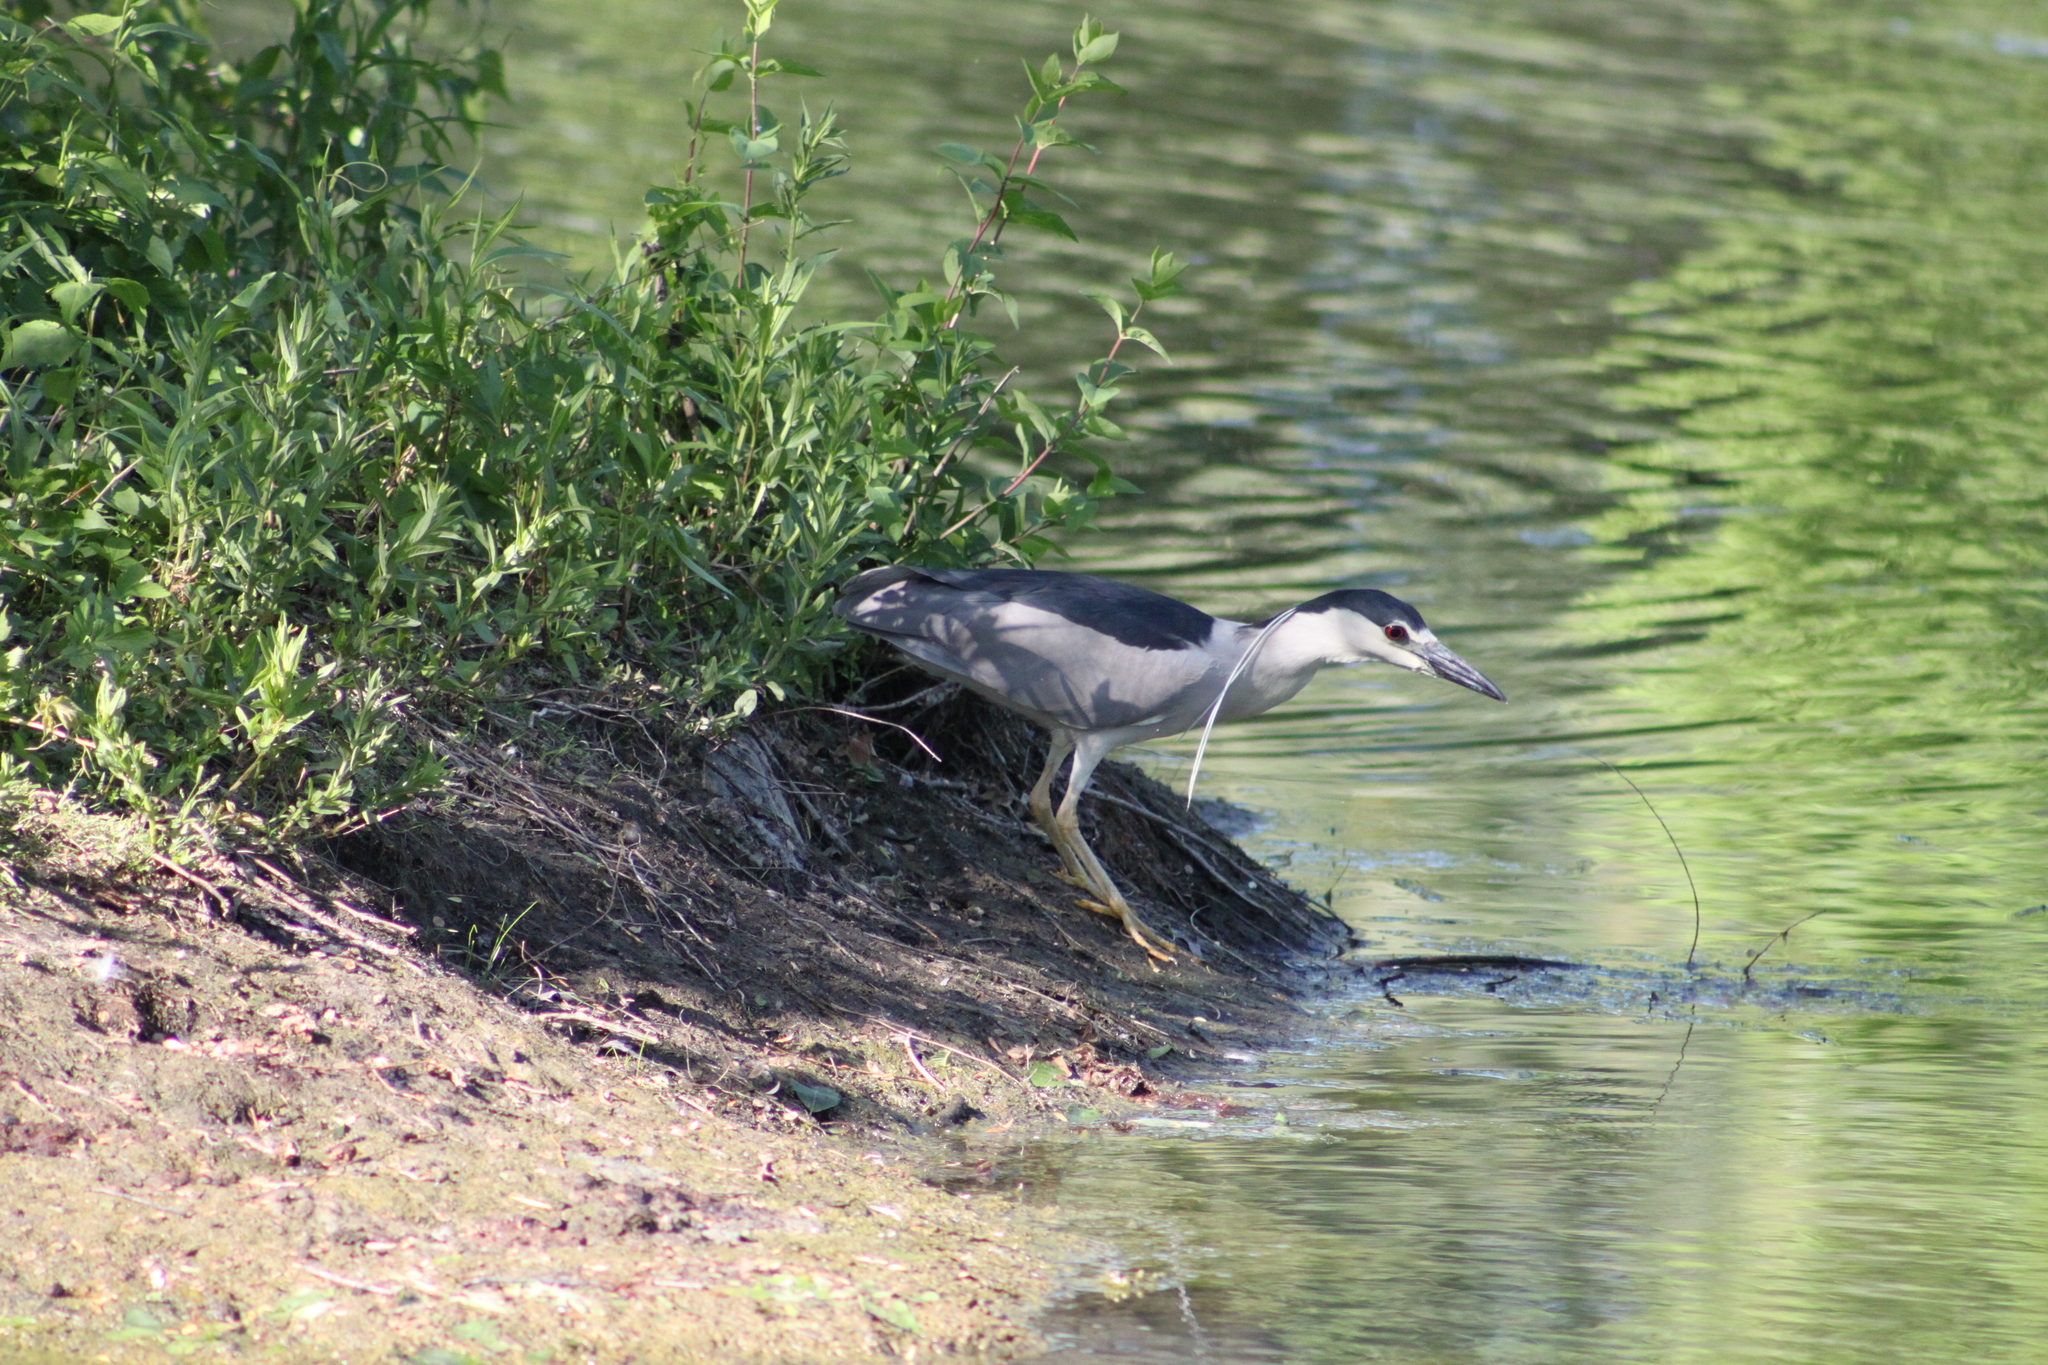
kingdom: Animalia
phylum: Chordata
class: Aves
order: Pelecaniformes
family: Ardeidae
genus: Nycticorax
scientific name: Nycticorax nycticorax
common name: Black-crowned night heron
